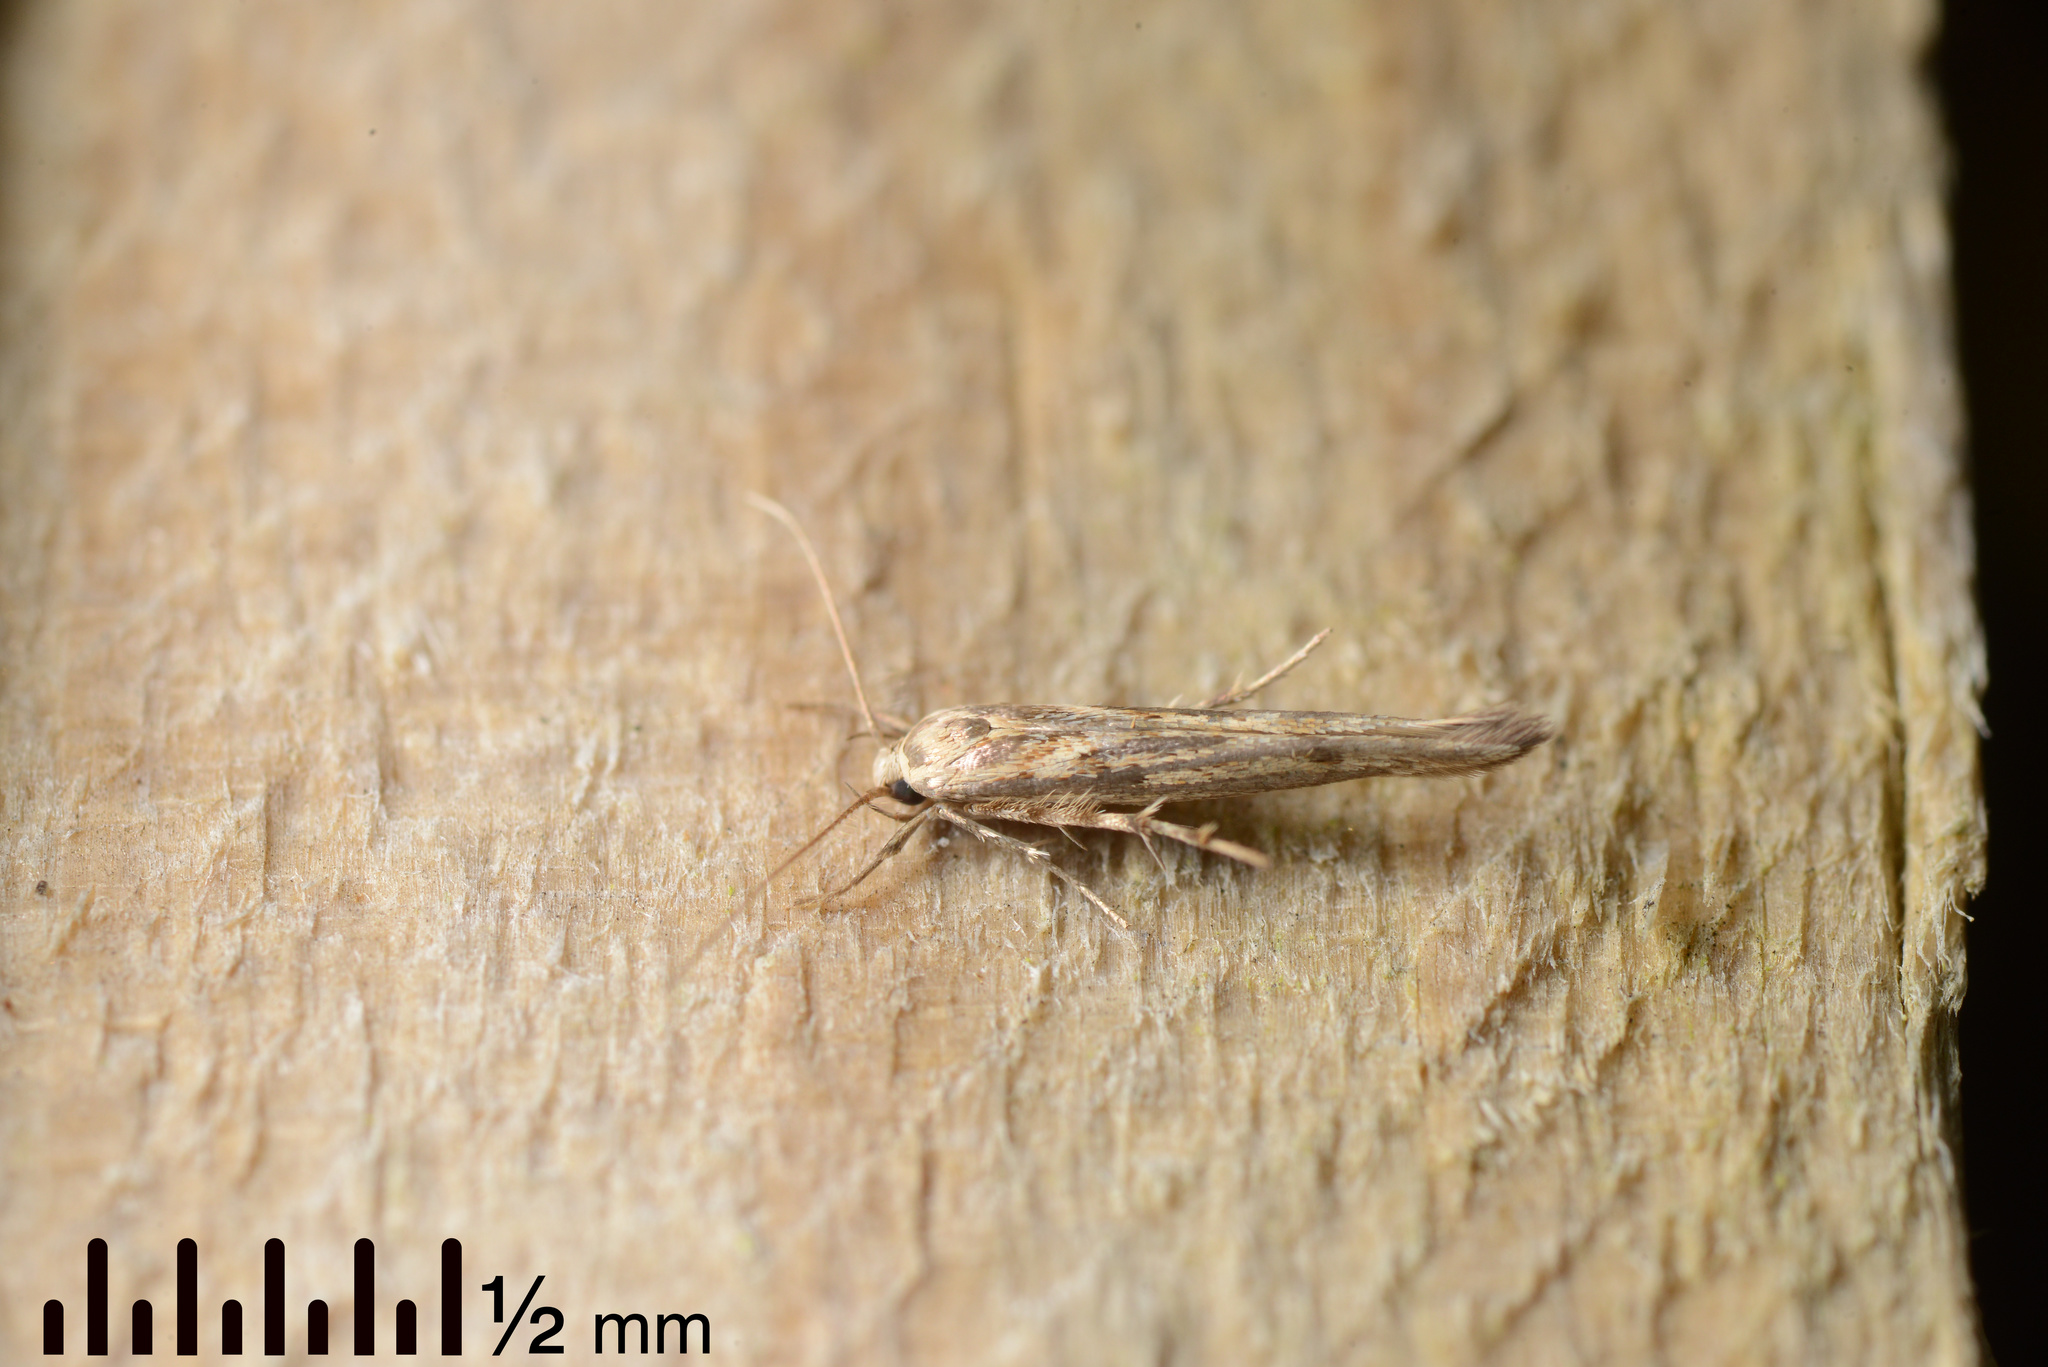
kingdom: Animalia
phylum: Arthropoda
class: Insecta
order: Lepidoptera
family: Stathmopodidae
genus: Stathmopoda
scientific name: Stathmopoda plumbiflua
